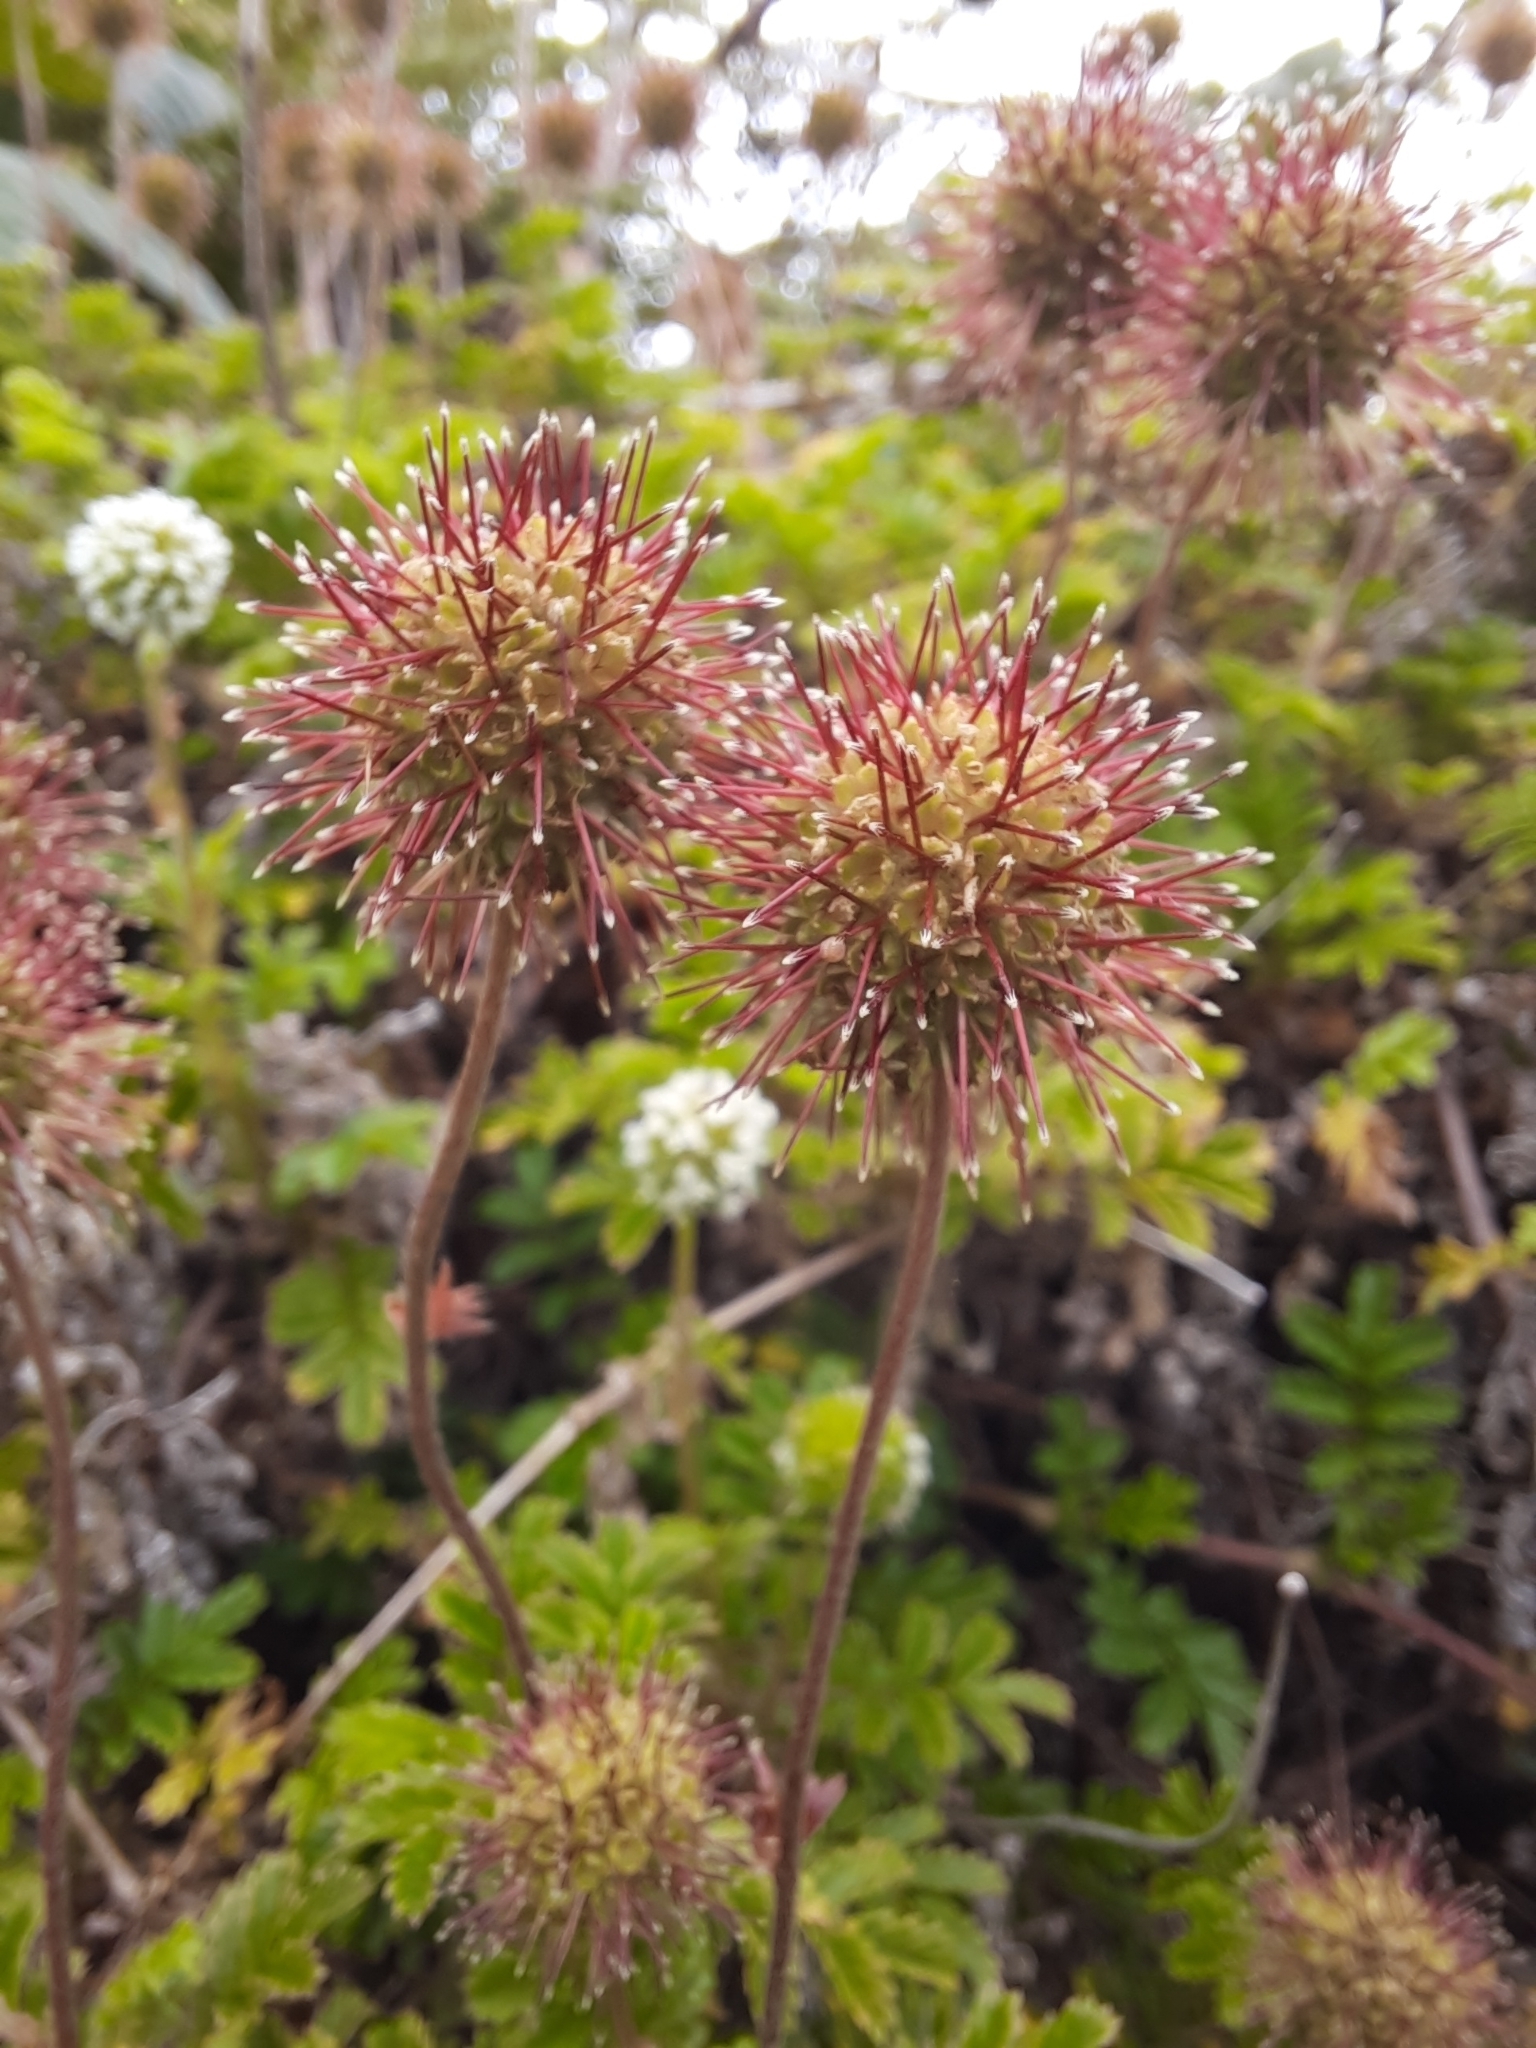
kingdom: Plantae
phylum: Tracheophyta
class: Magnoliopsida
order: Rosales
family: Rosaceae
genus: Acaena
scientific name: Acaena novae-zelandiae
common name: Pirri-pirri-bur
